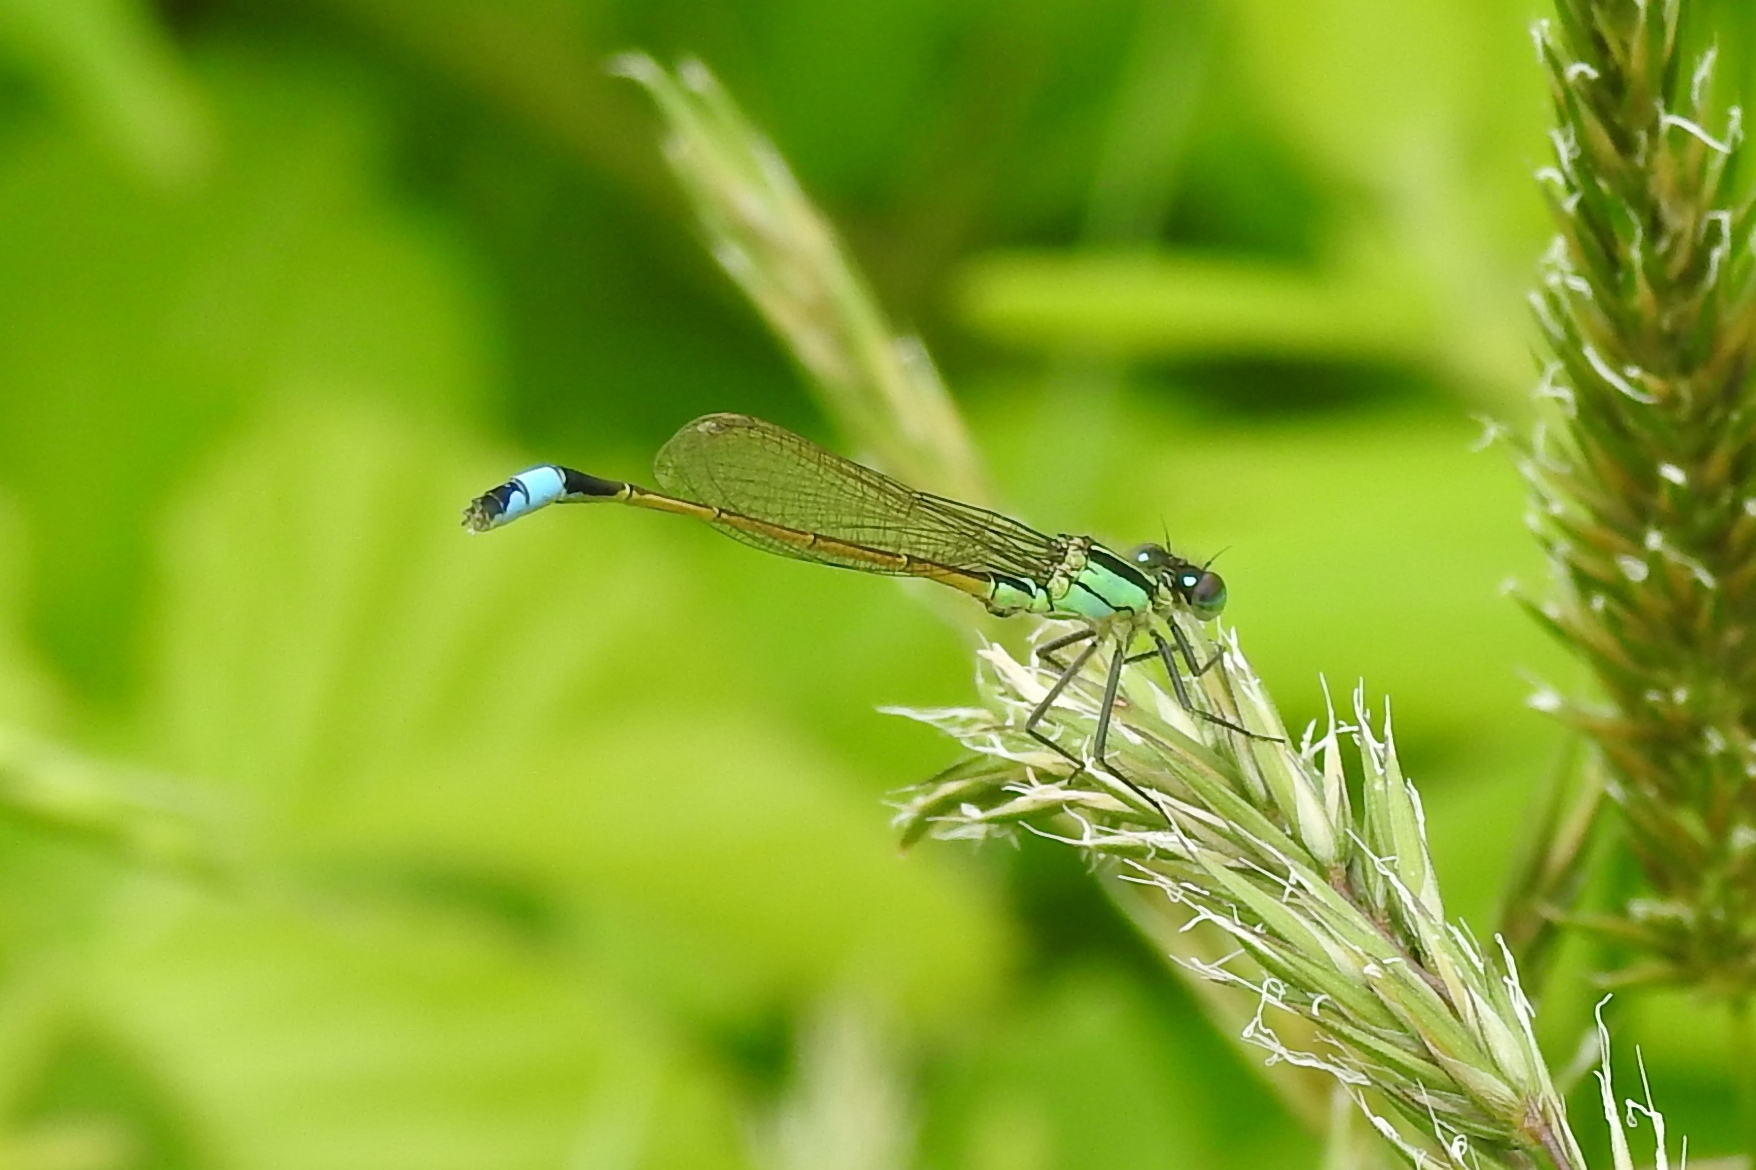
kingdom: Animalia
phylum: Arthropoda
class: Insecta
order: Odonata
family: Coenagrionidae
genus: Ischnura
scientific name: Ischnura ramburii
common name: Rambur's forktail
